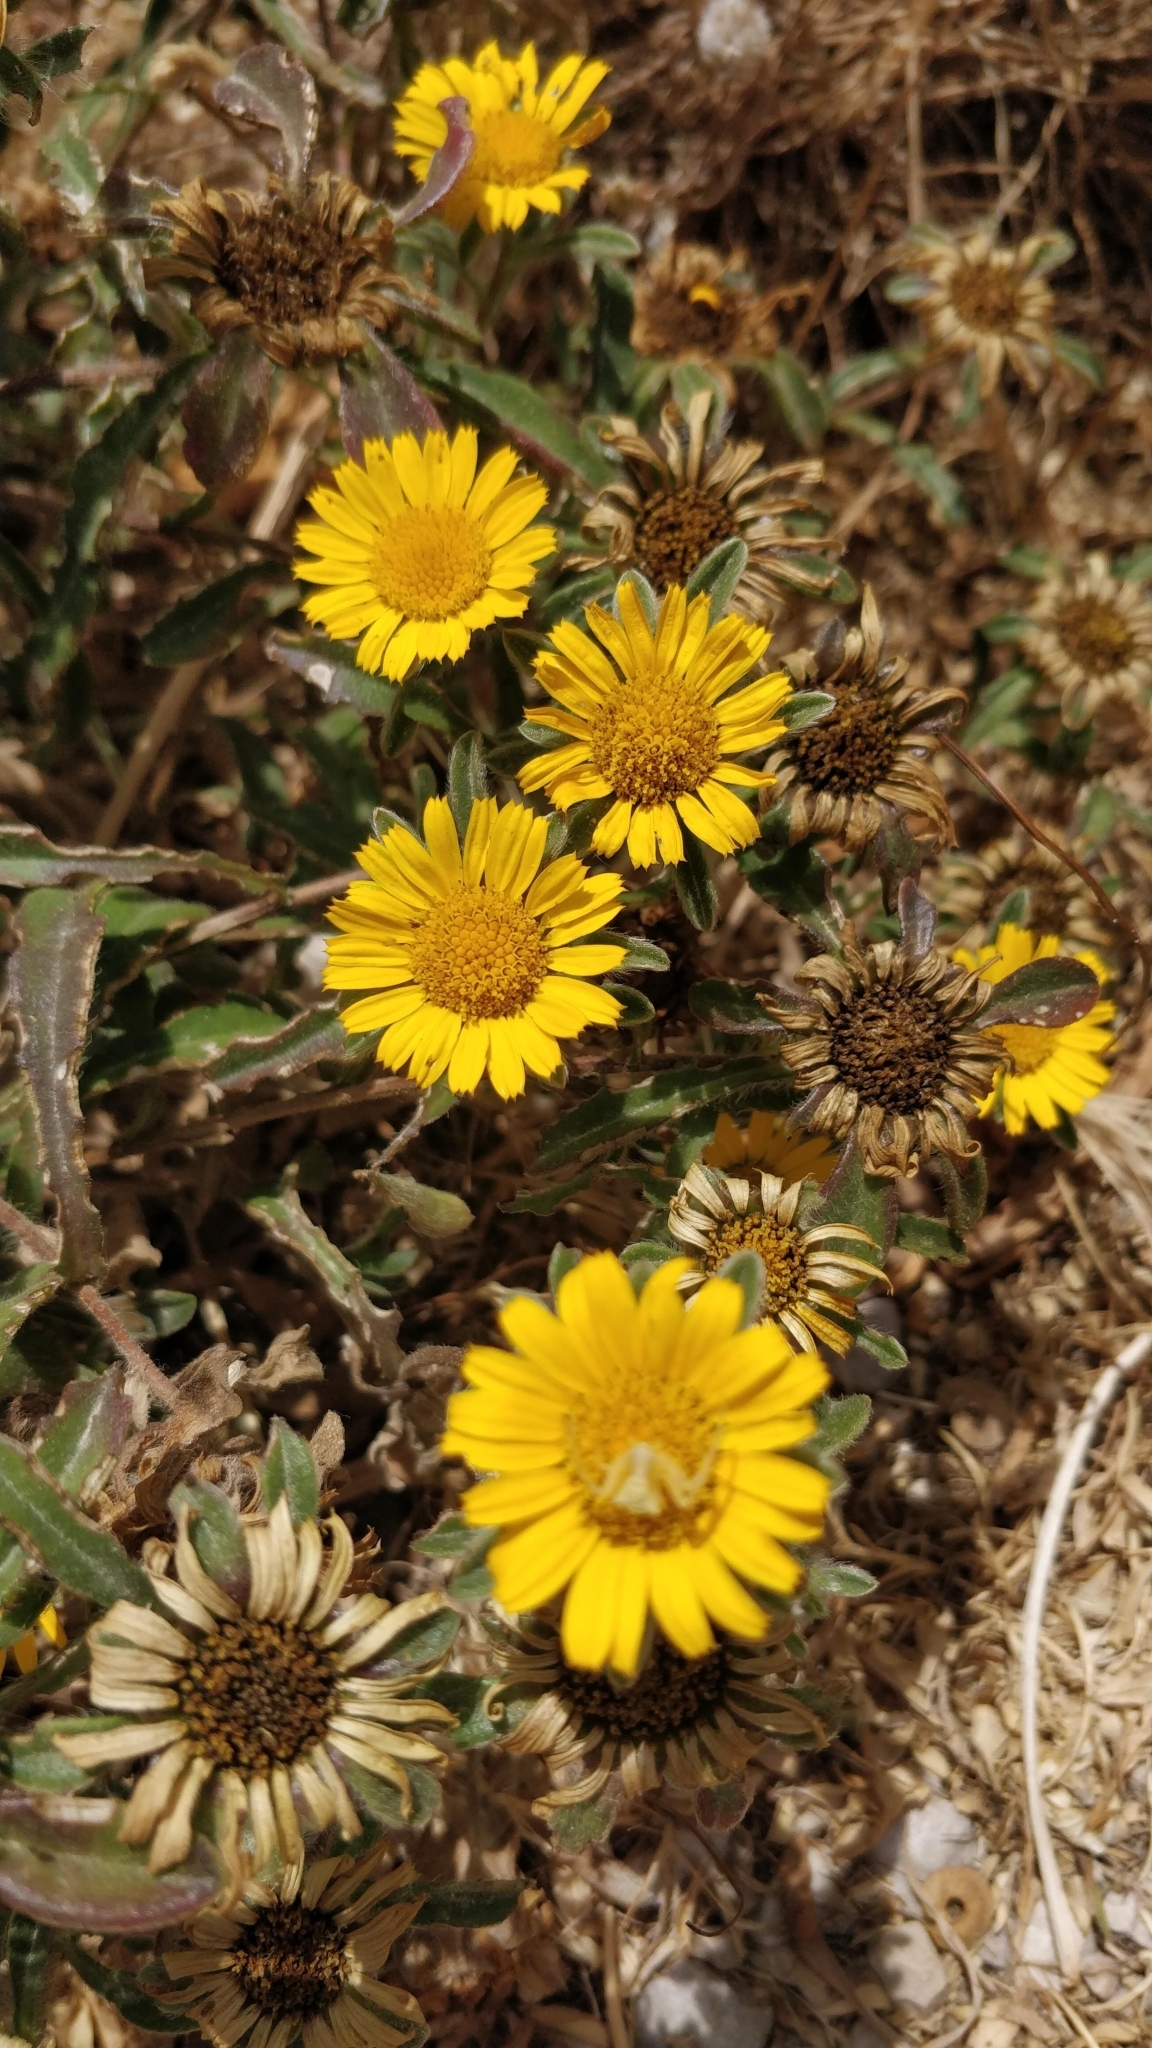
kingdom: Plantae
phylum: Tracheophyta
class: Magnoliopsida
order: Asterales
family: Asteraceae
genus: Pallenis
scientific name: Pallenis maritima
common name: Golden coin daisy
